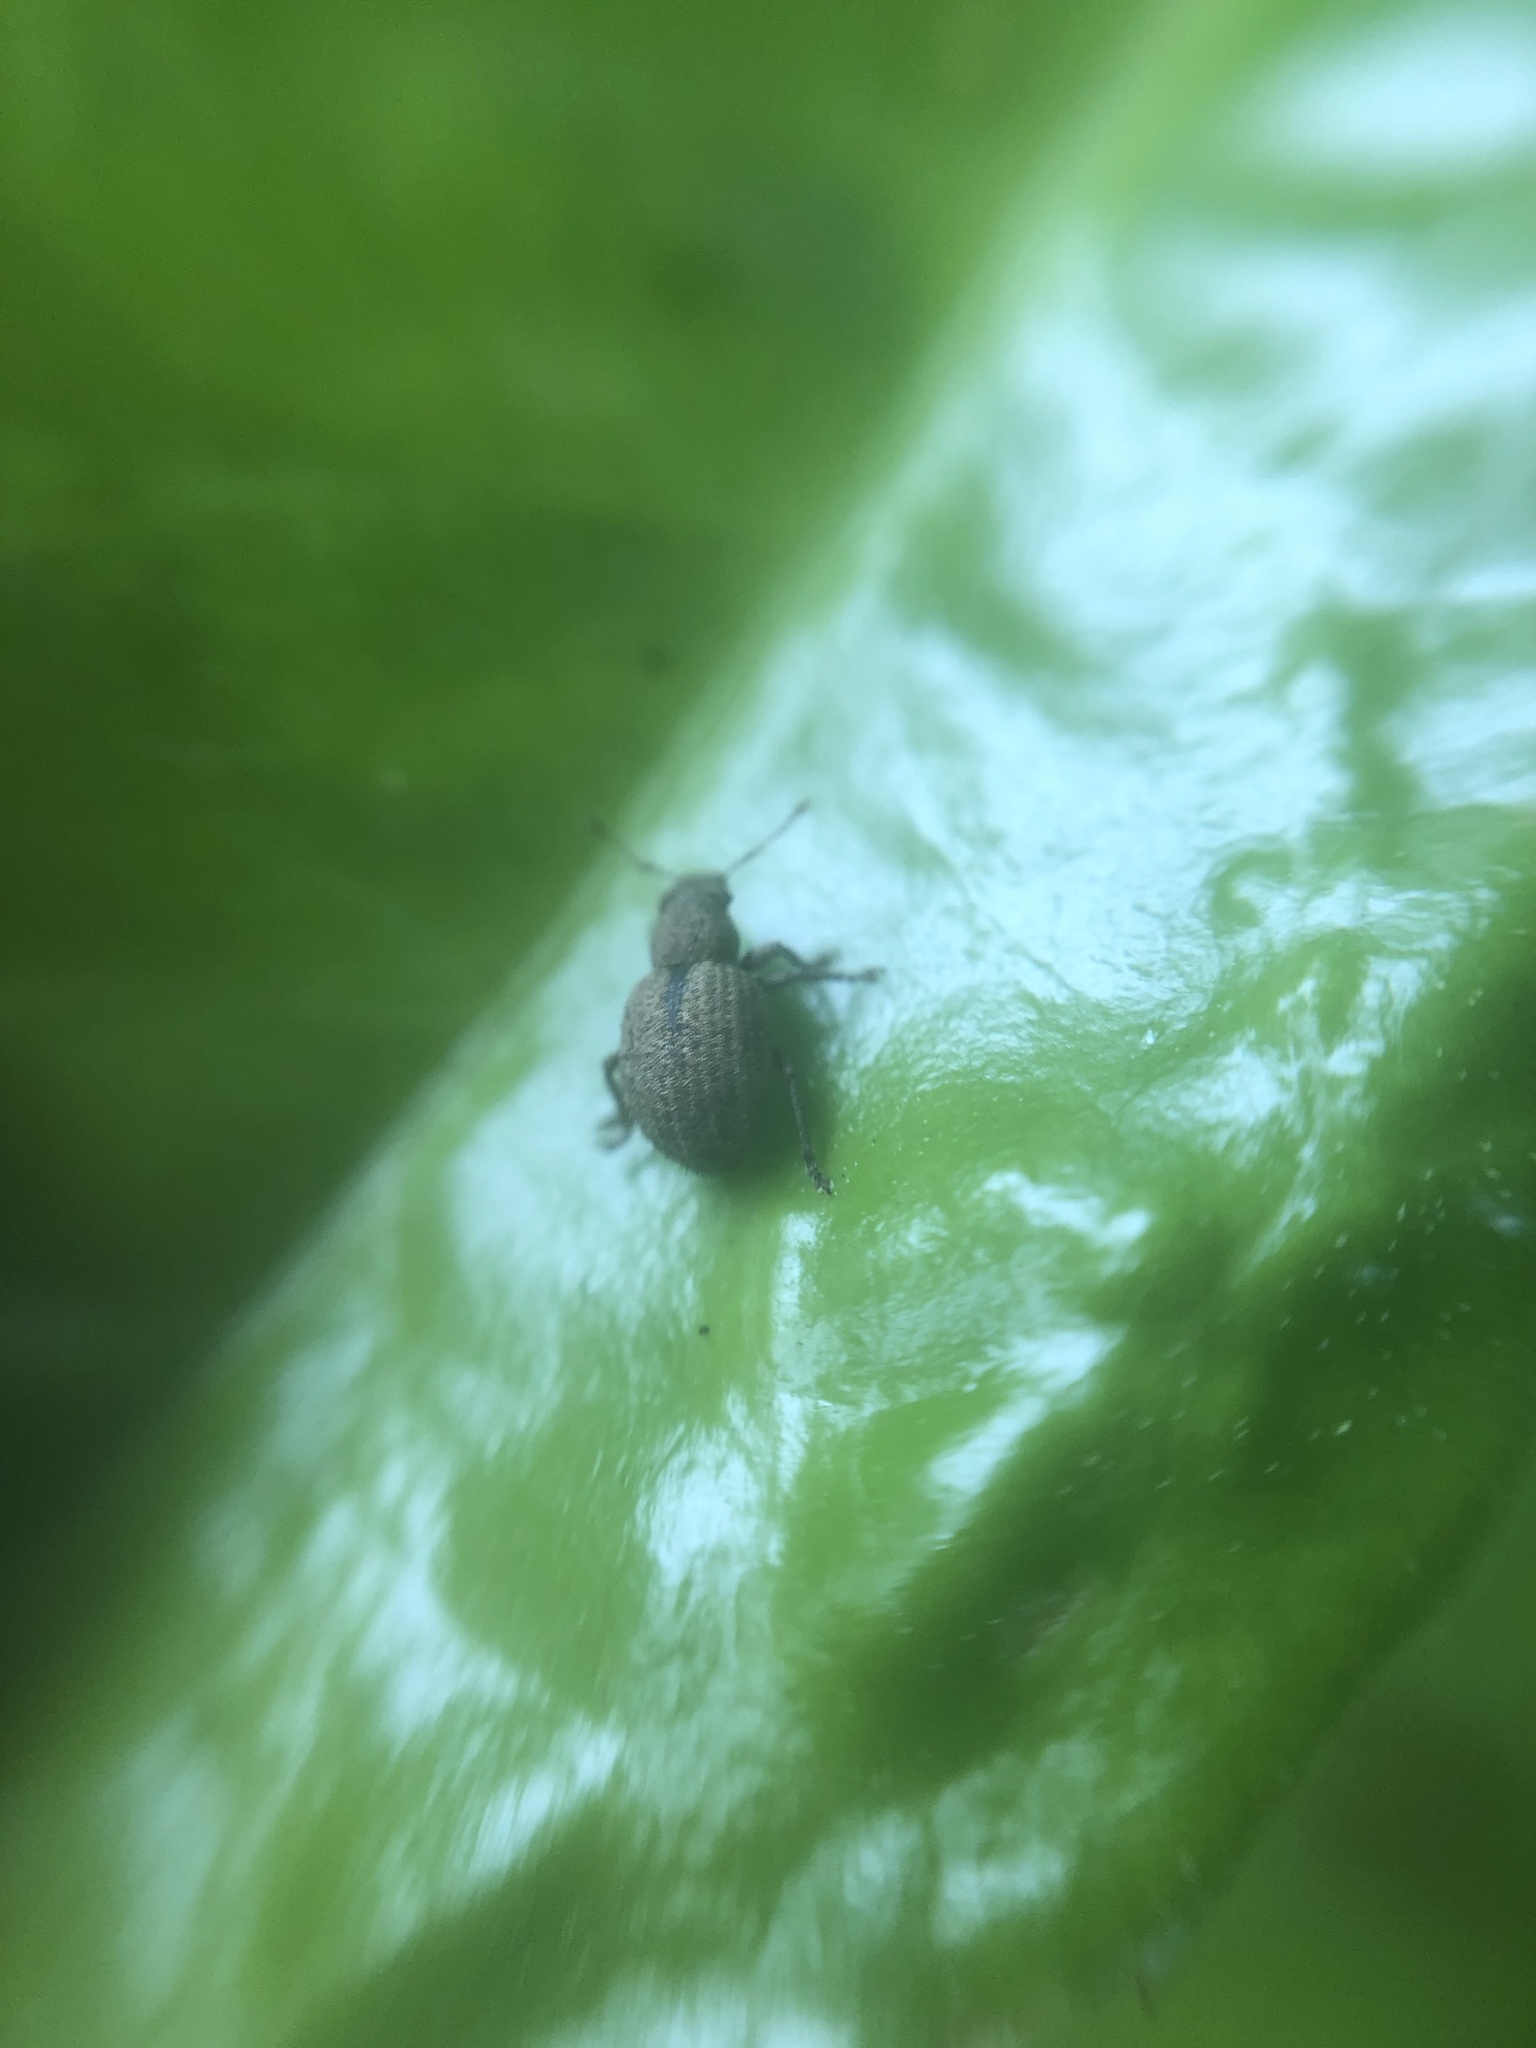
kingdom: Animalia
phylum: Arthropoda
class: Insecta
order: Coleoptera
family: Curculionidae
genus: Strophosoma
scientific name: Strophosoma melanogrammum
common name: Weevil
